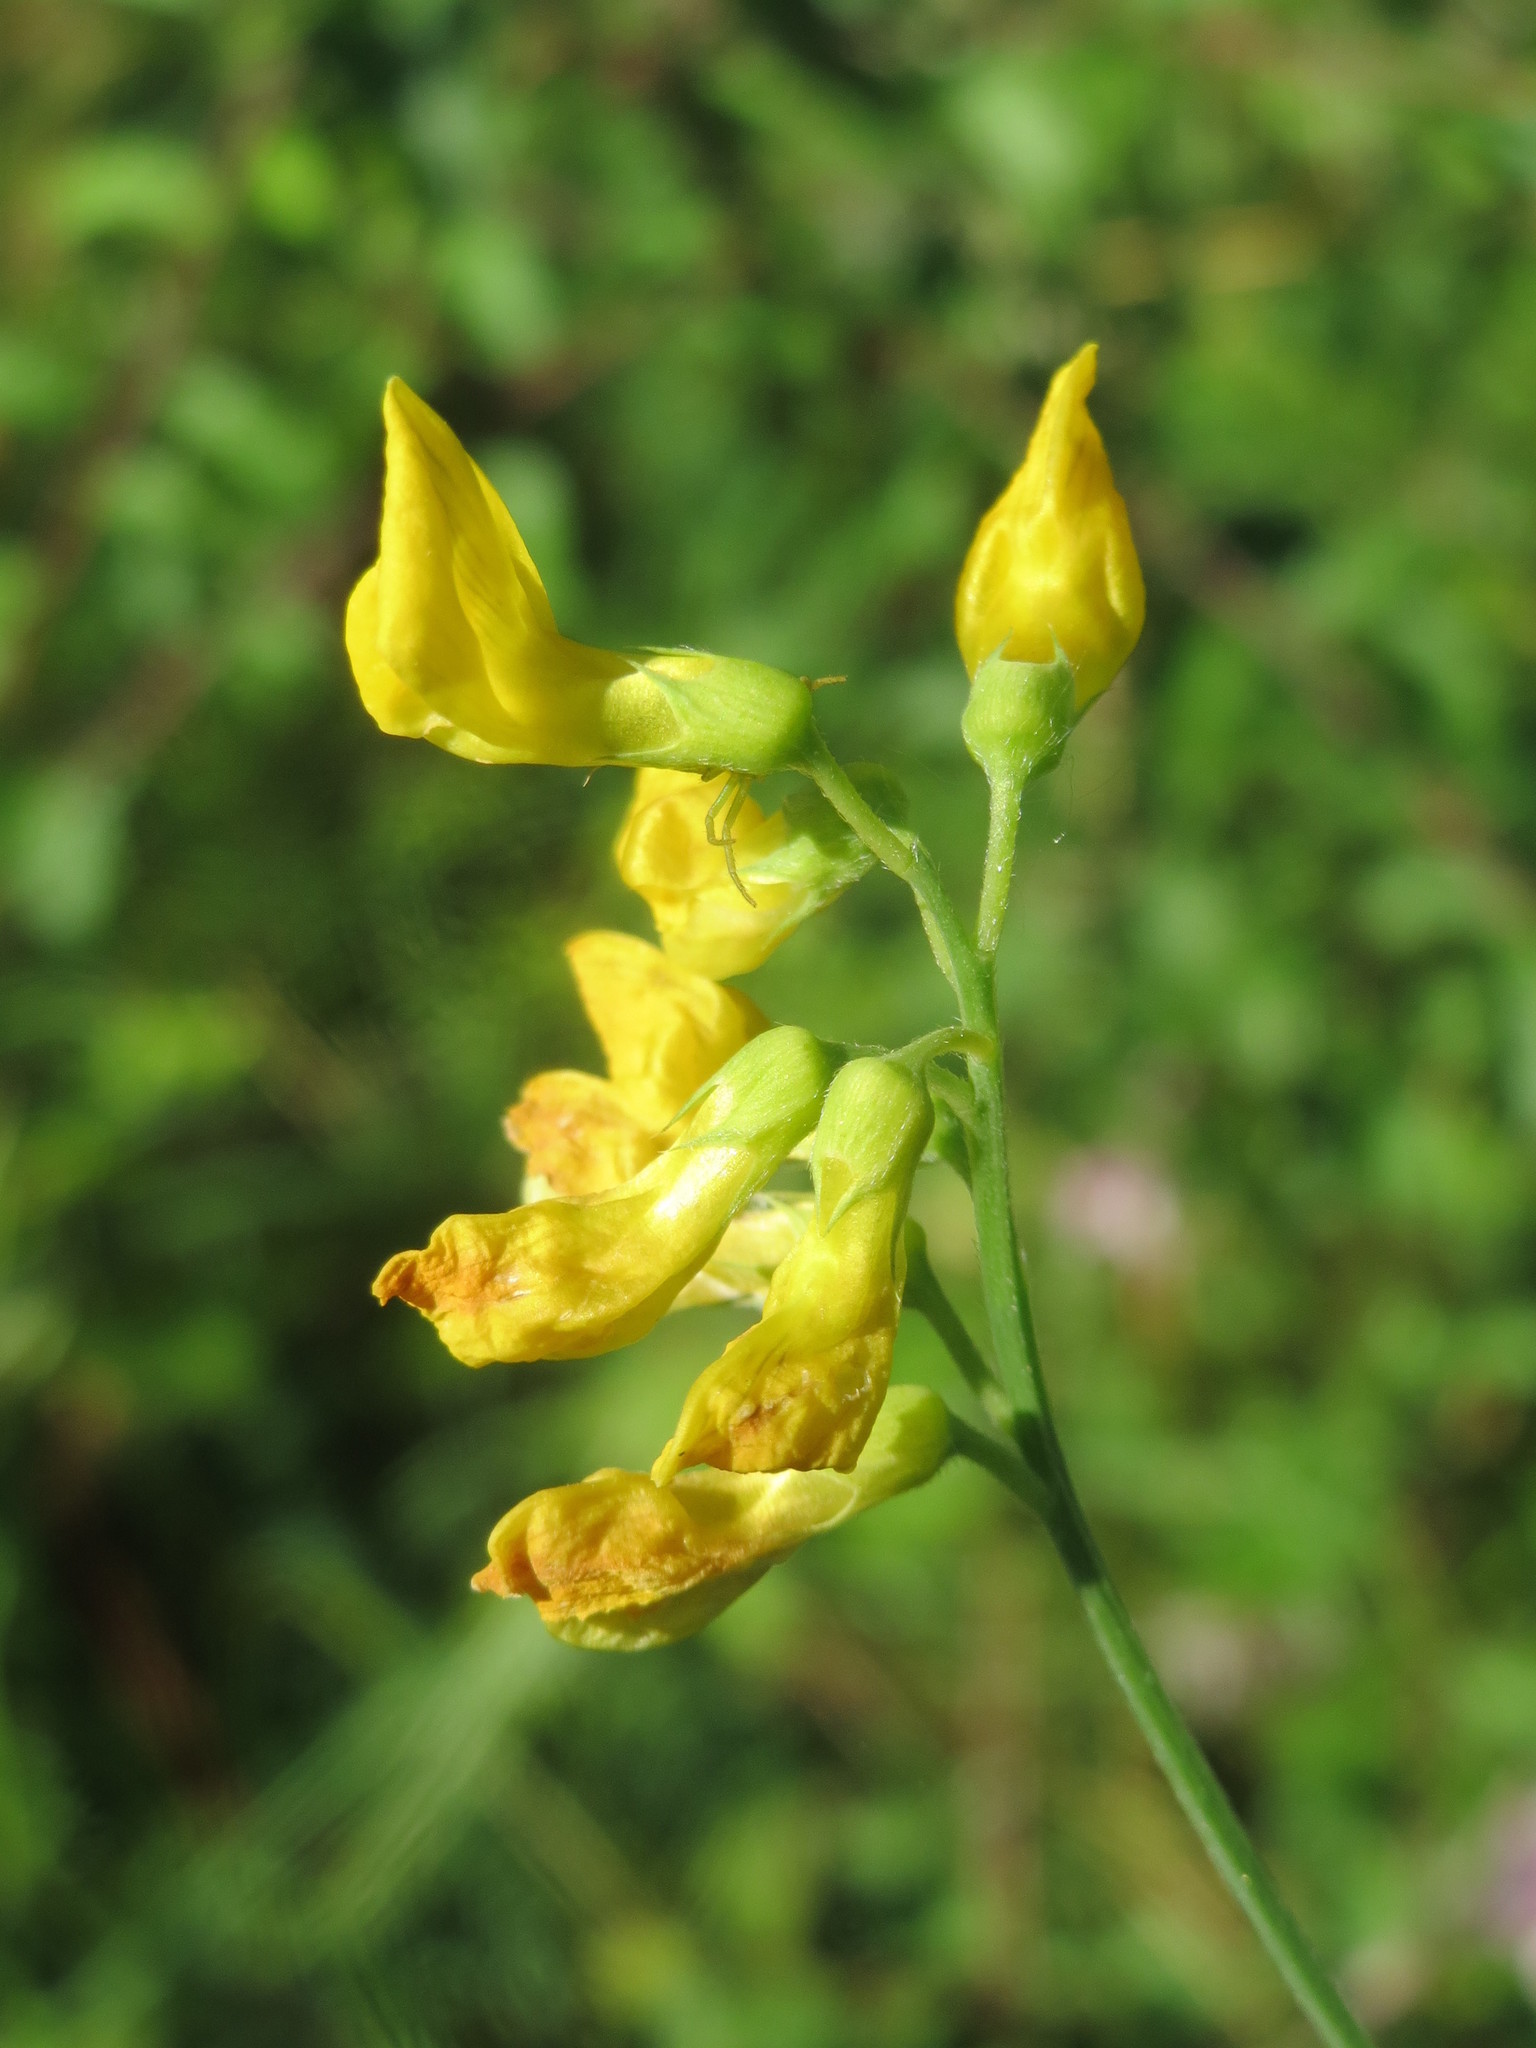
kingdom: Plantae
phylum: Tracheophyta
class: Magnoliopsida
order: Fabales
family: Fabaceae
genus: Lathyrus
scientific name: Lathyrus pratensis
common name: Meadow vetchling
